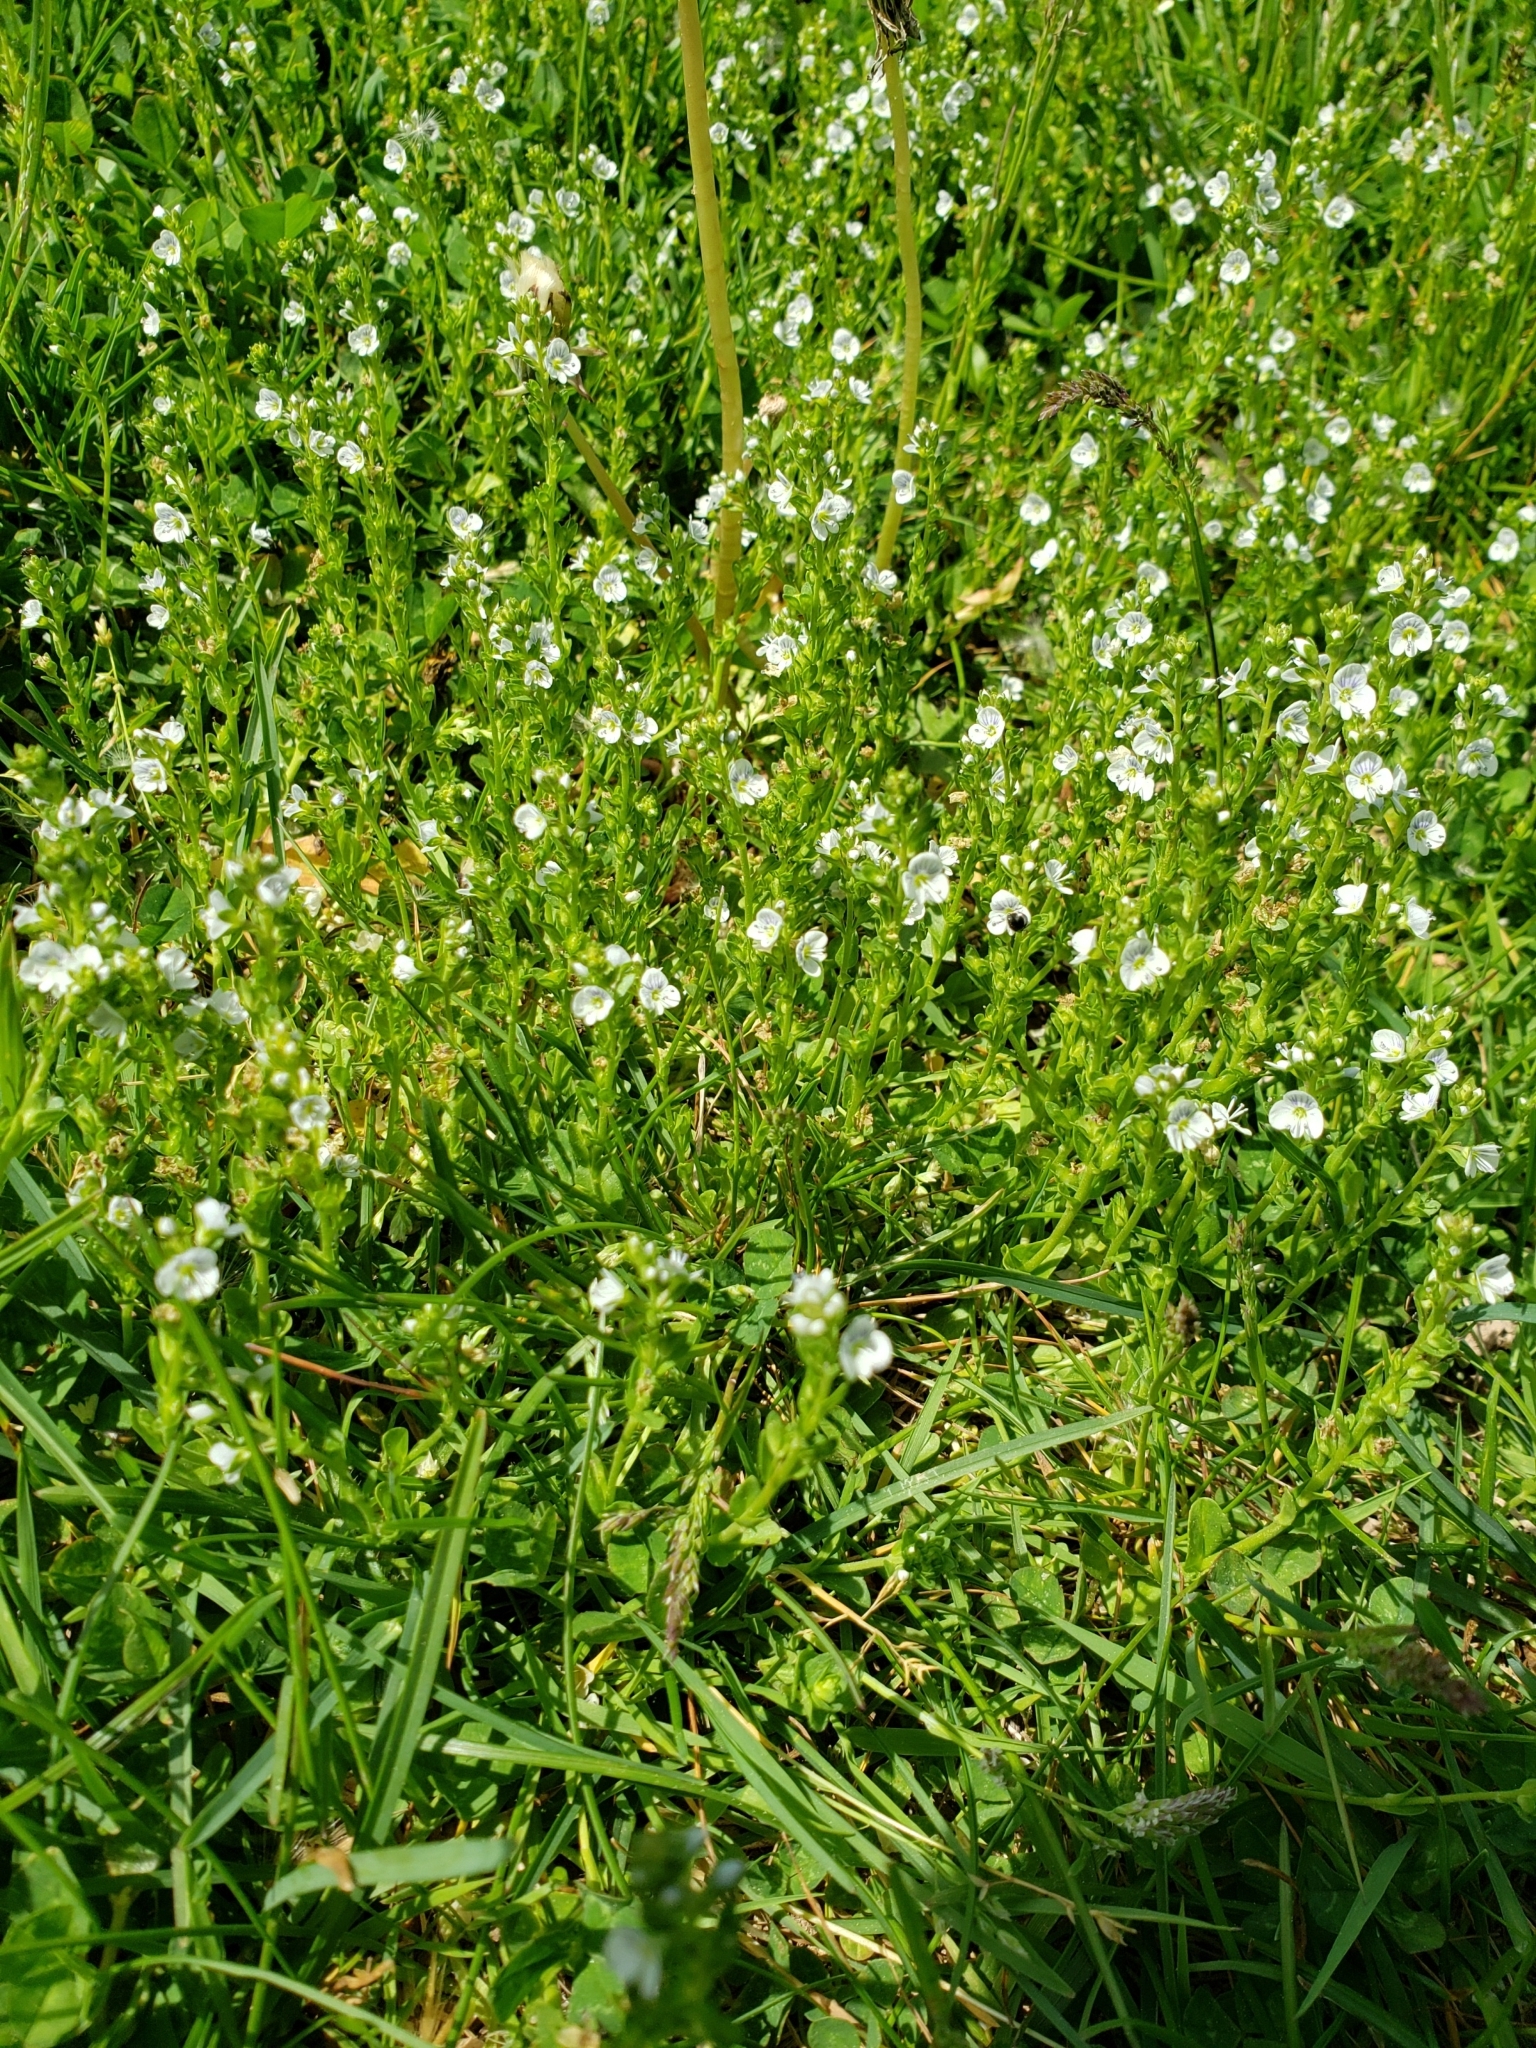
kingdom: Plantae
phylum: Tracheophyta
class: Magnoliopsida
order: Lamiales
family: Plantaginaceae
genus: Veronica
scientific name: Veronica serpyllifolia
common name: Thyme-leaved speedwell
